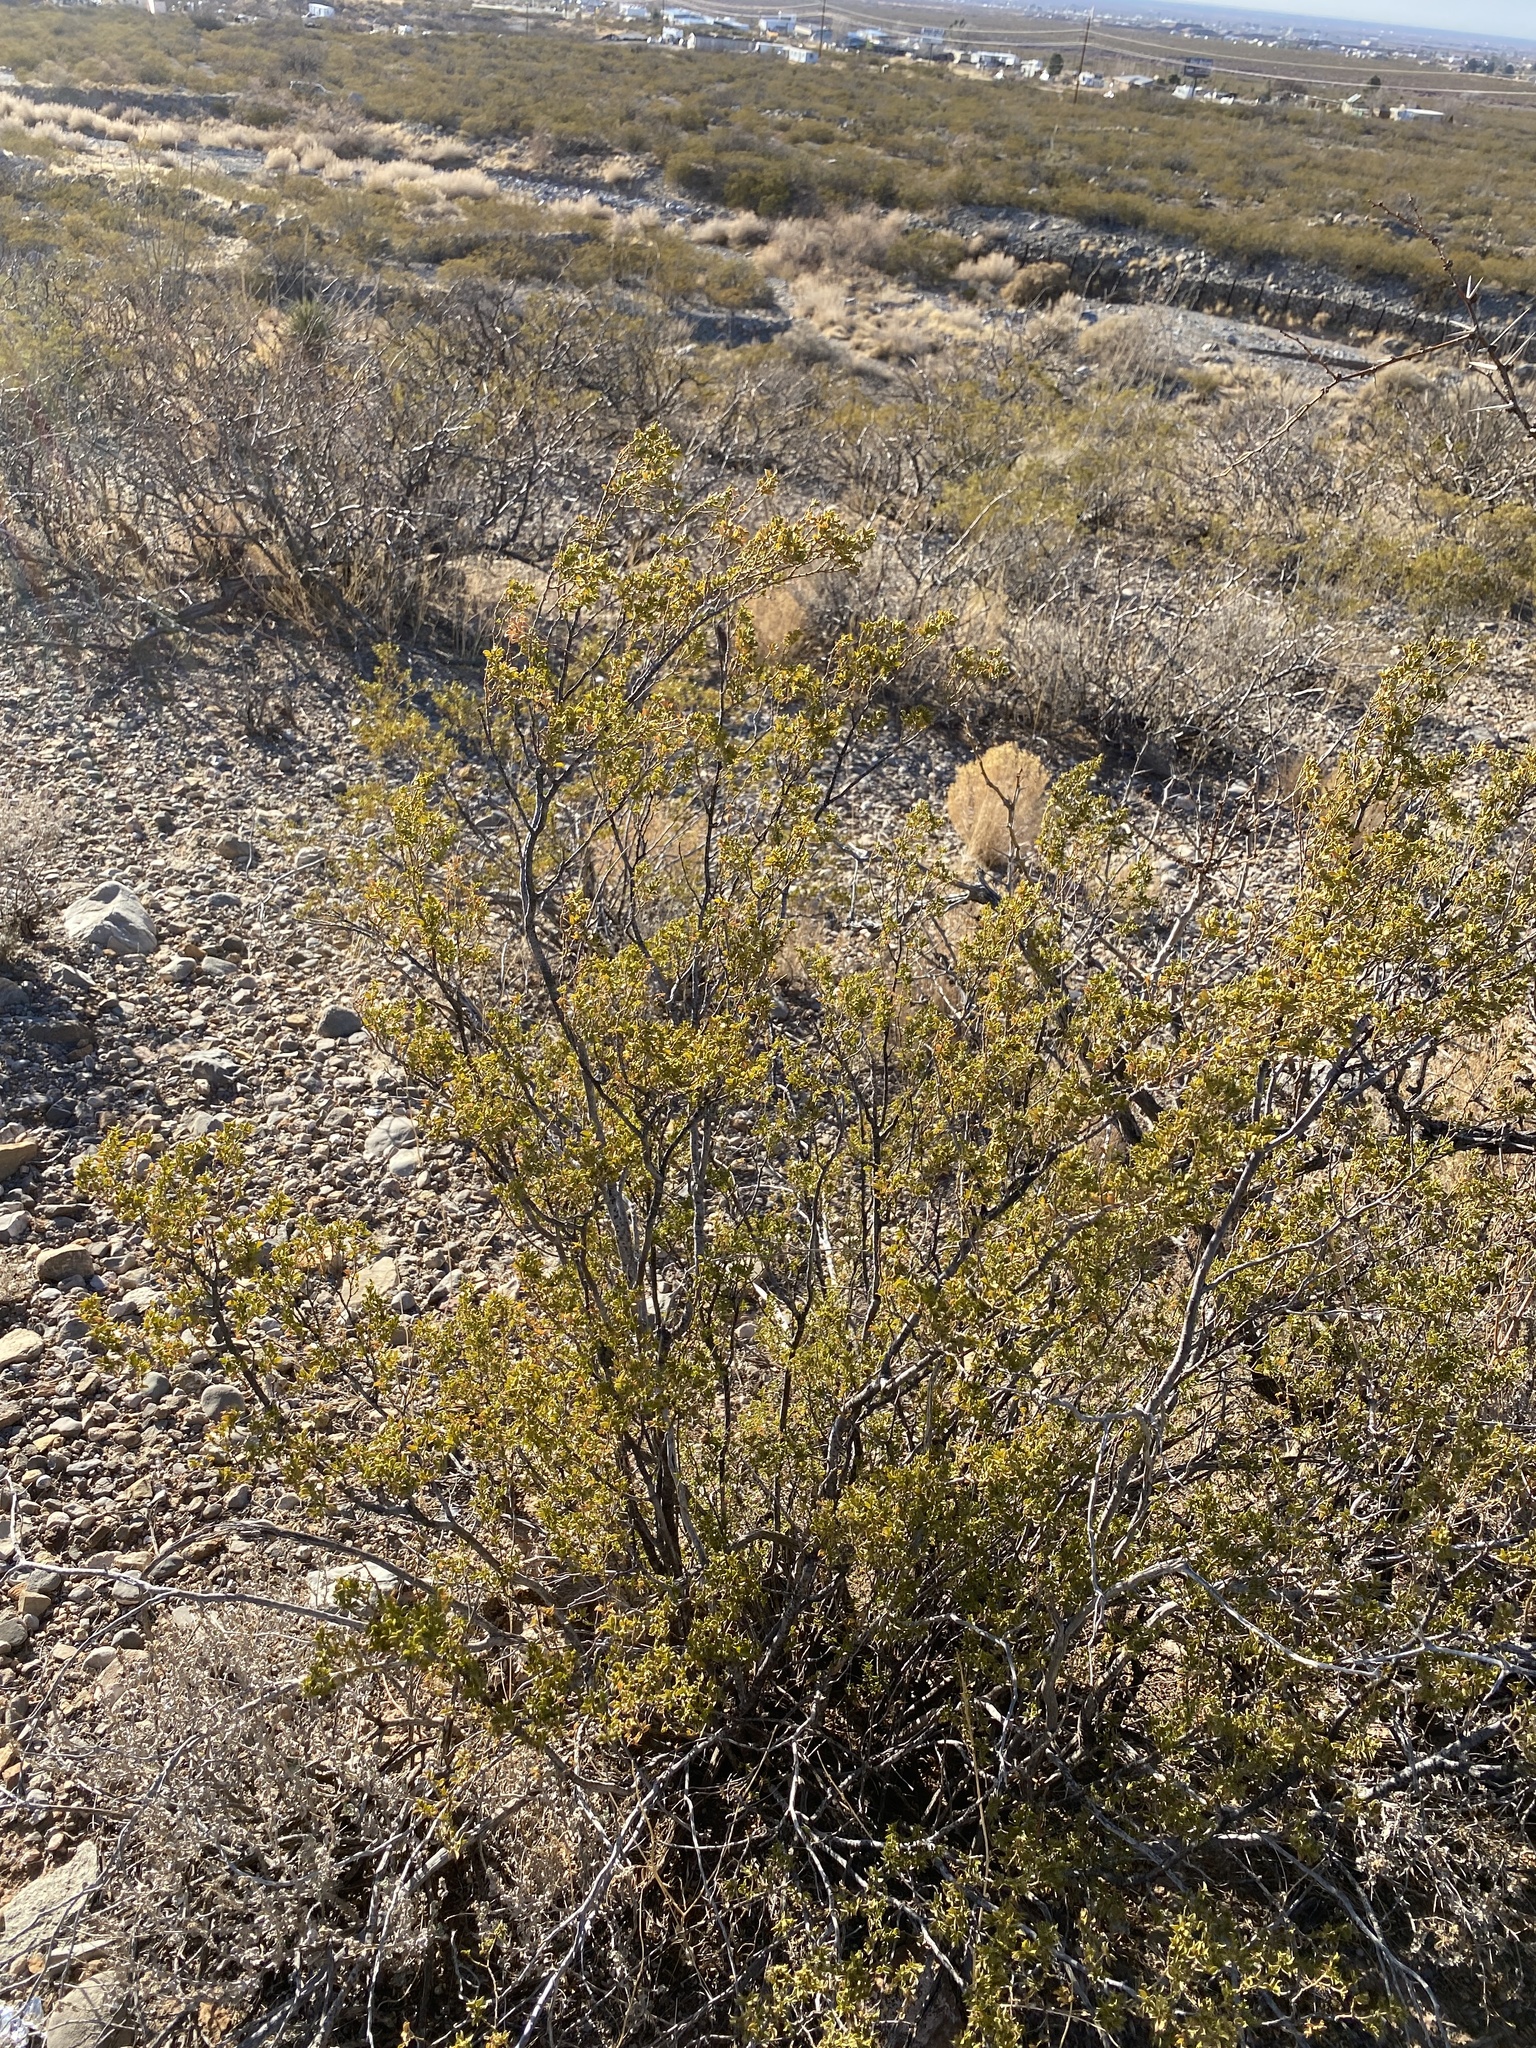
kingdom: Plantae
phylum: Tracheophyta
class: Magnoliopsida
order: Zygophyllales
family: Zygophyllaceae
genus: Larrea
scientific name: Larrea tridentata
